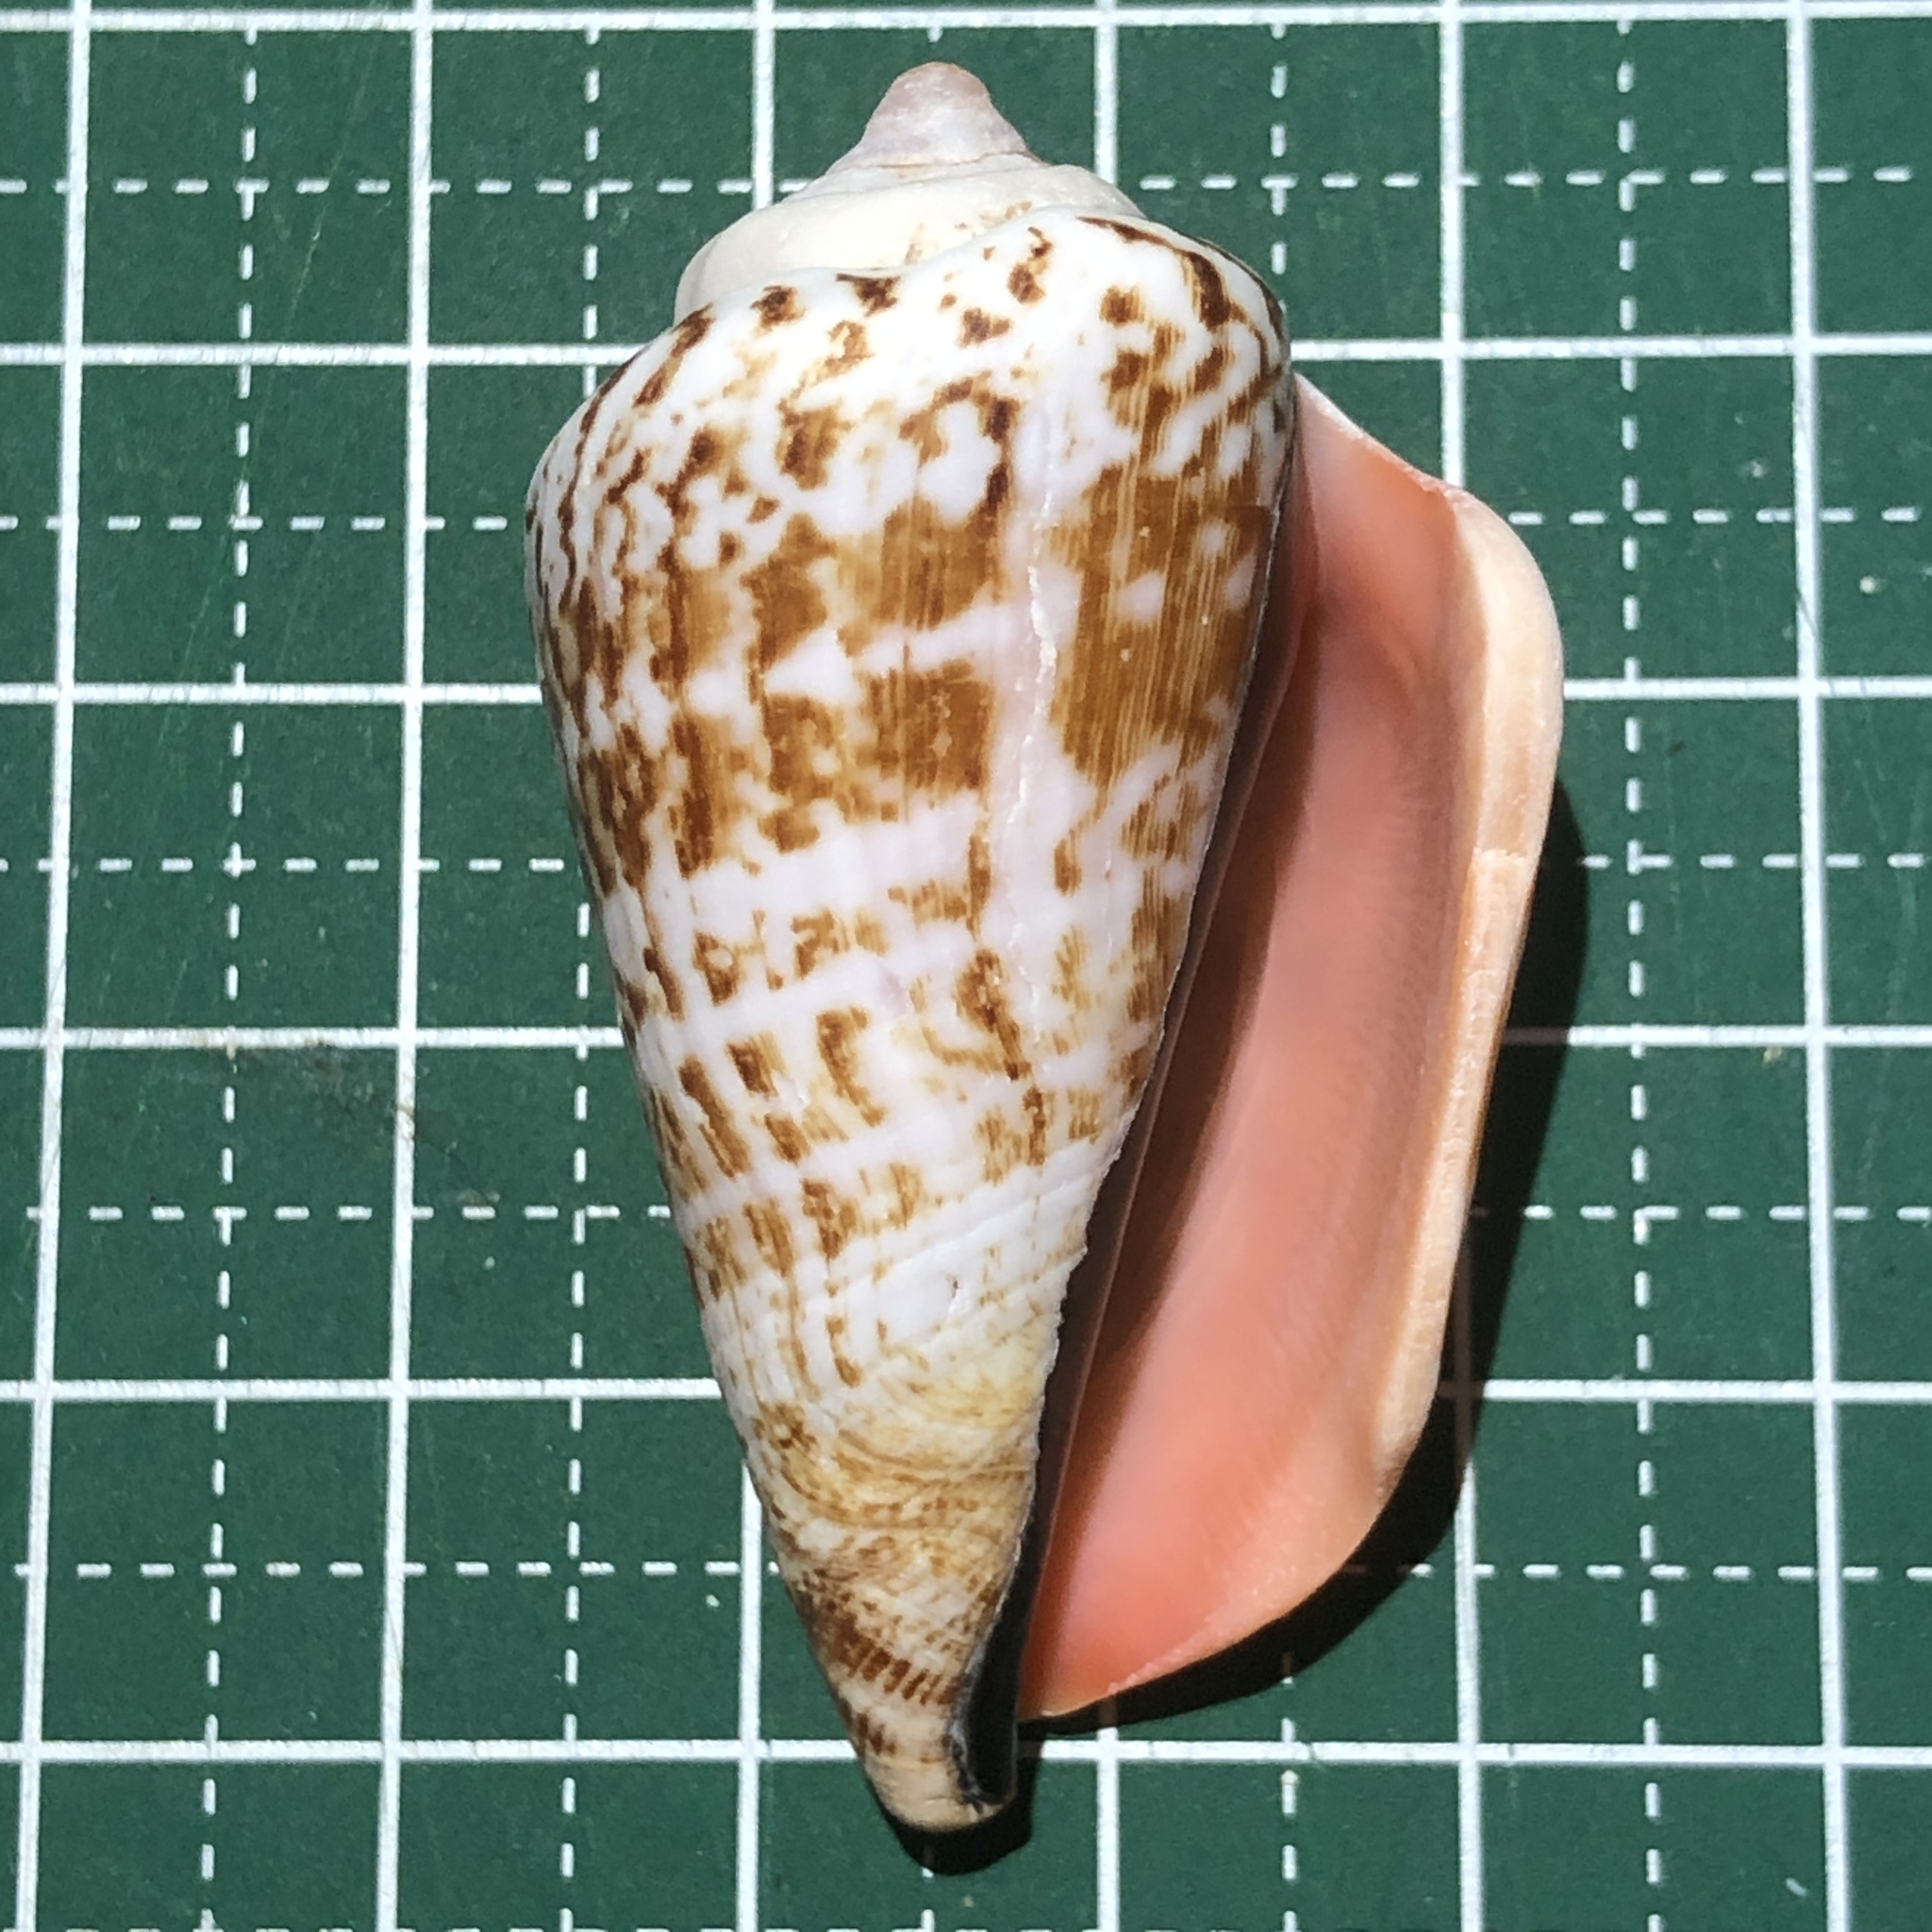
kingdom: Animalia
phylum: Mollusca
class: Gastropoda
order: Littorinimorpha
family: Strombidae
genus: Conomurex
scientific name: Conomurex luhuanus
